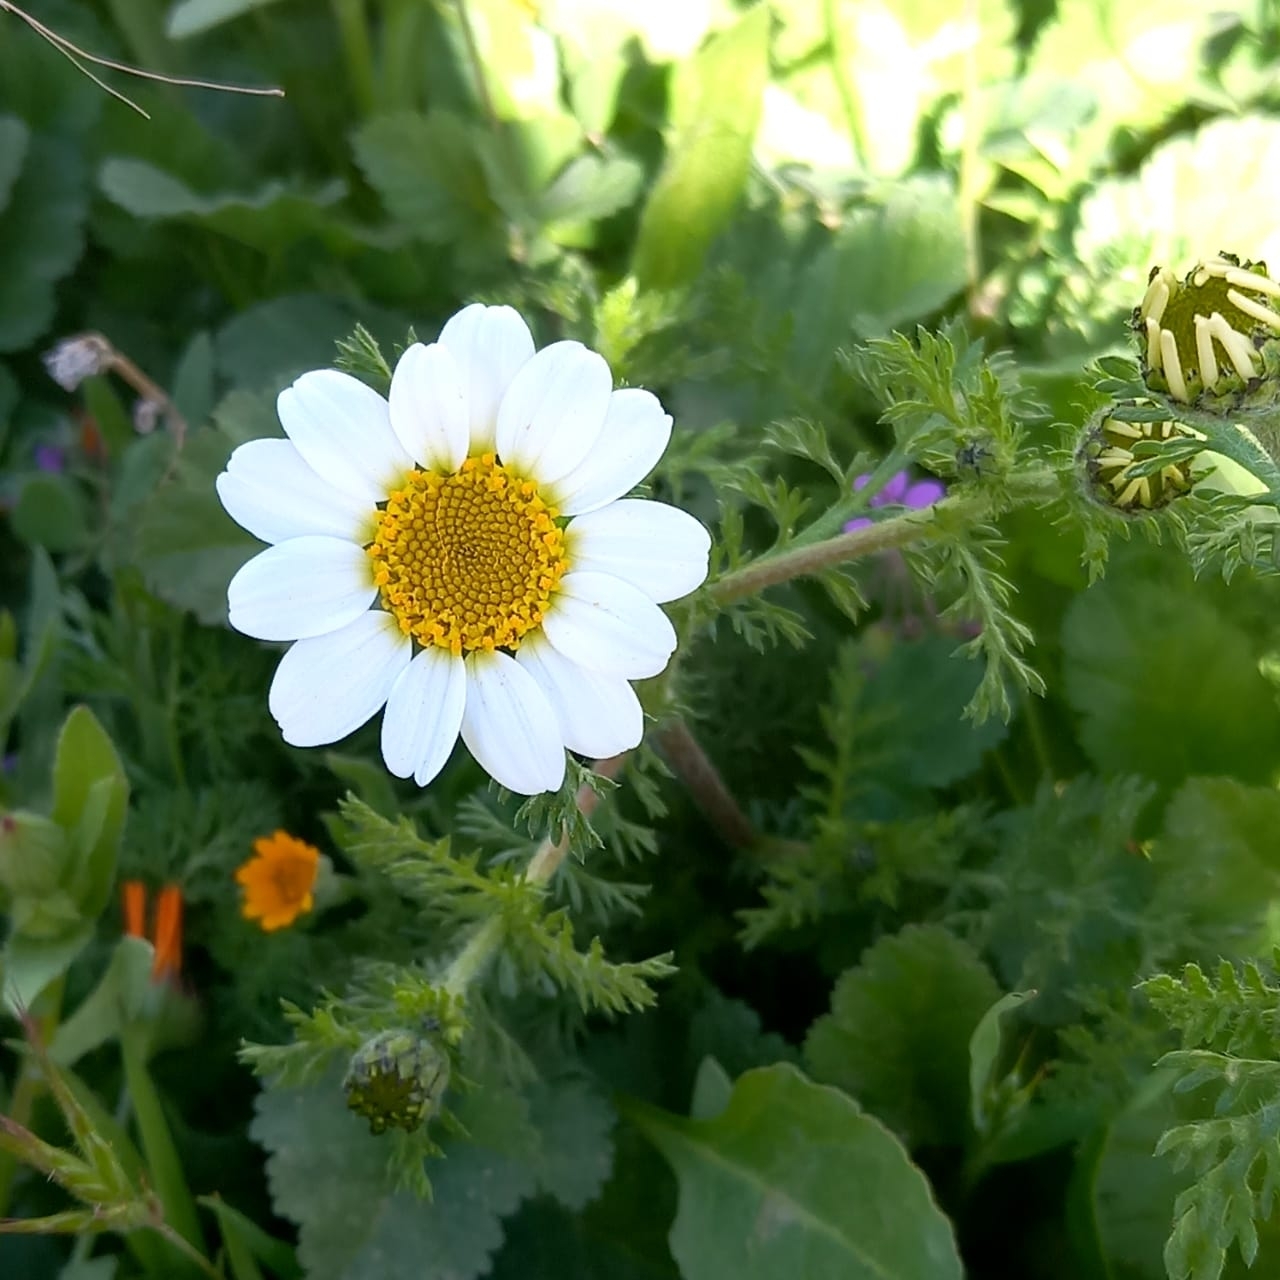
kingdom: Plantae
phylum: Tracheophyta
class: Magnoliopsida
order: Asterales
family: Asteraceae
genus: Anacyclus
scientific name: Anacyclus clavatus
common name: Whitebuttons
